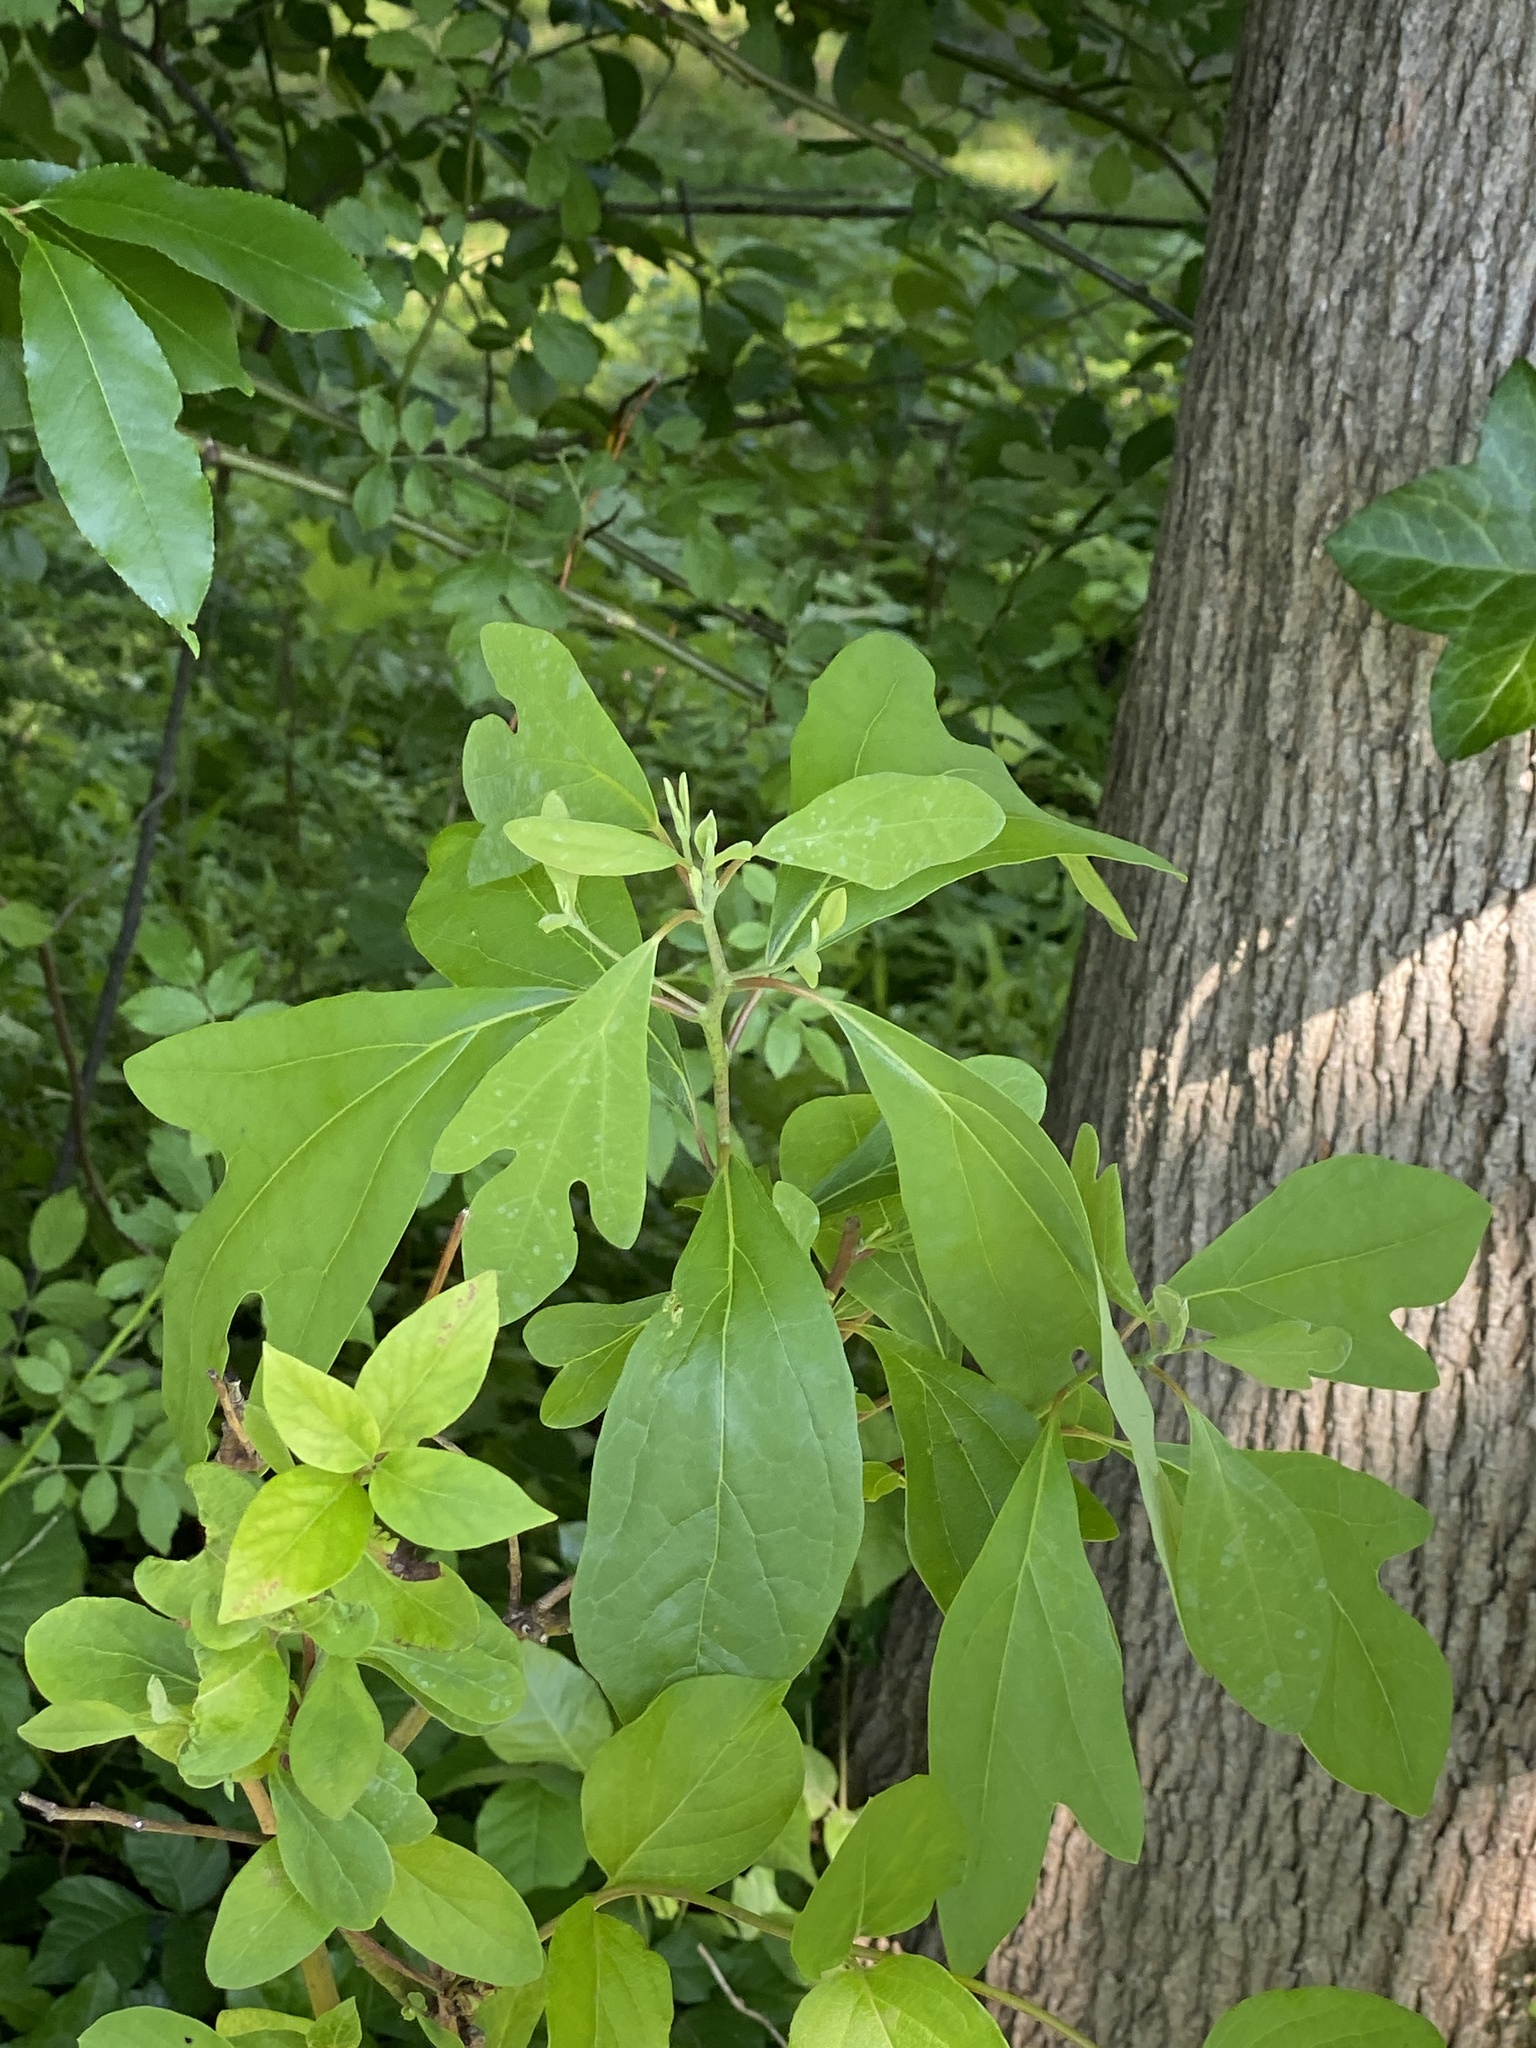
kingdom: Plantae
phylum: Tracheophyta
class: Magnoliopsida
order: Laurales
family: Lauraceae
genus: Sassafras
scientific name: Sassafras albidum
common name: Sassafras
